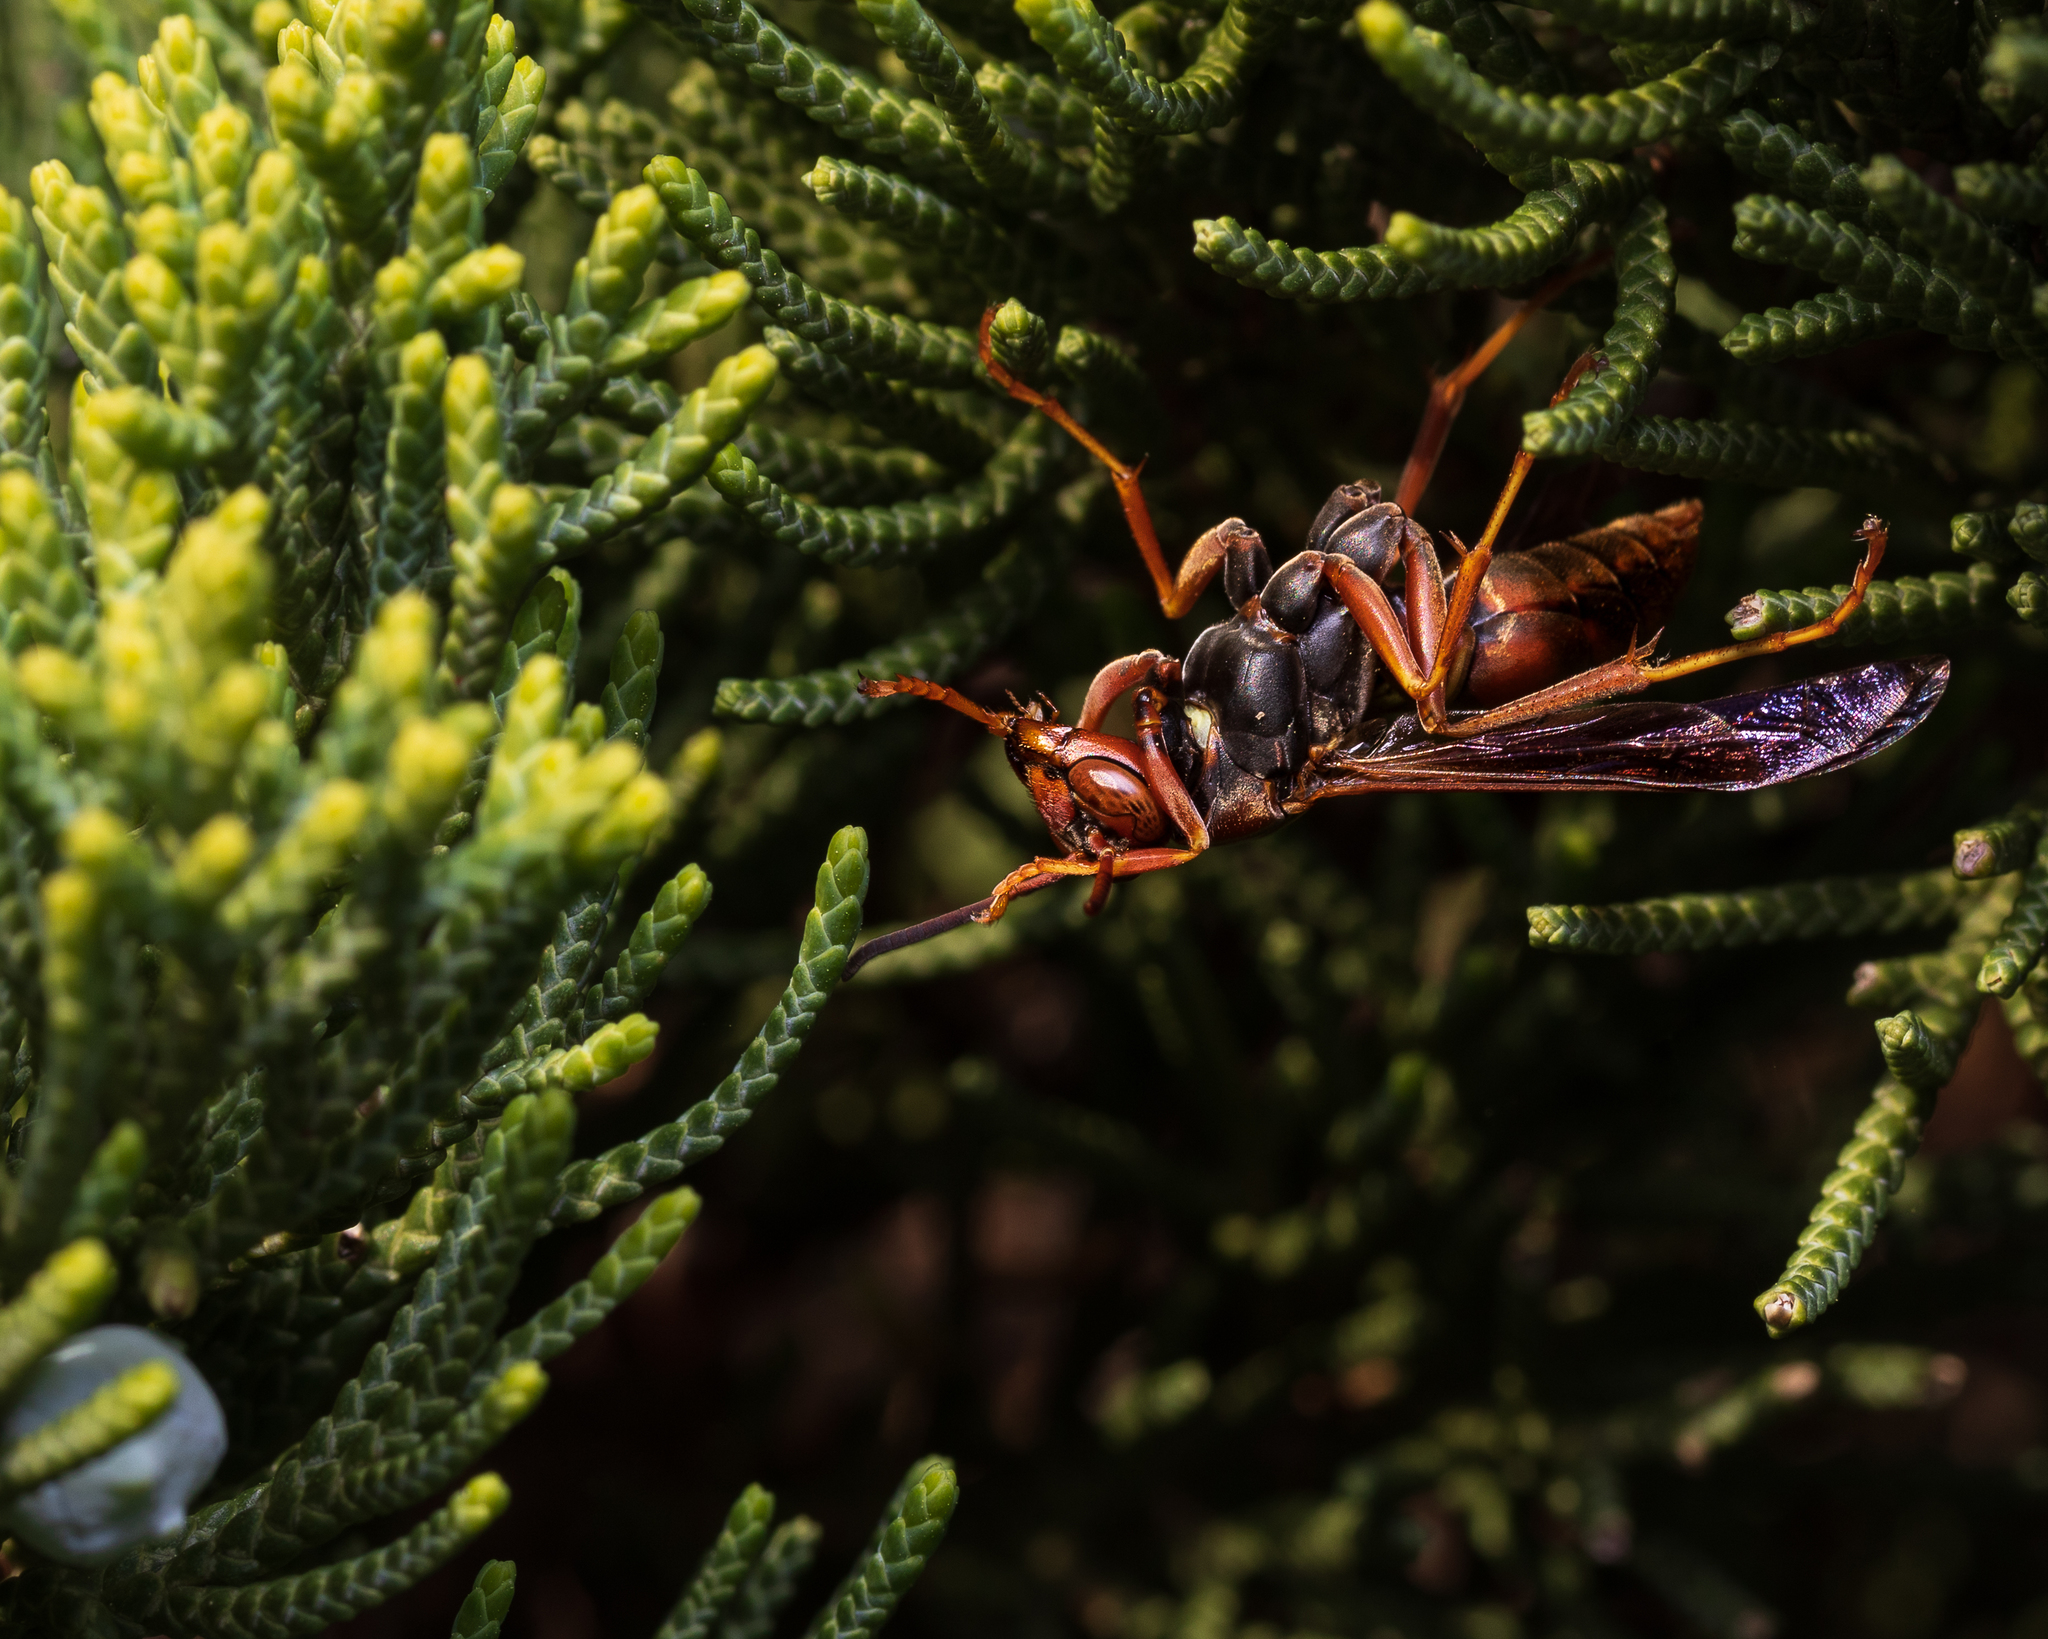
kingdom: Animalia
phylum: Arthropoda
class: Insecta
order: Hymenoptera
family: Eumenidae
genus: Polistes
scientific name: Polistes fuscatus
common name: Dark paper wasp
